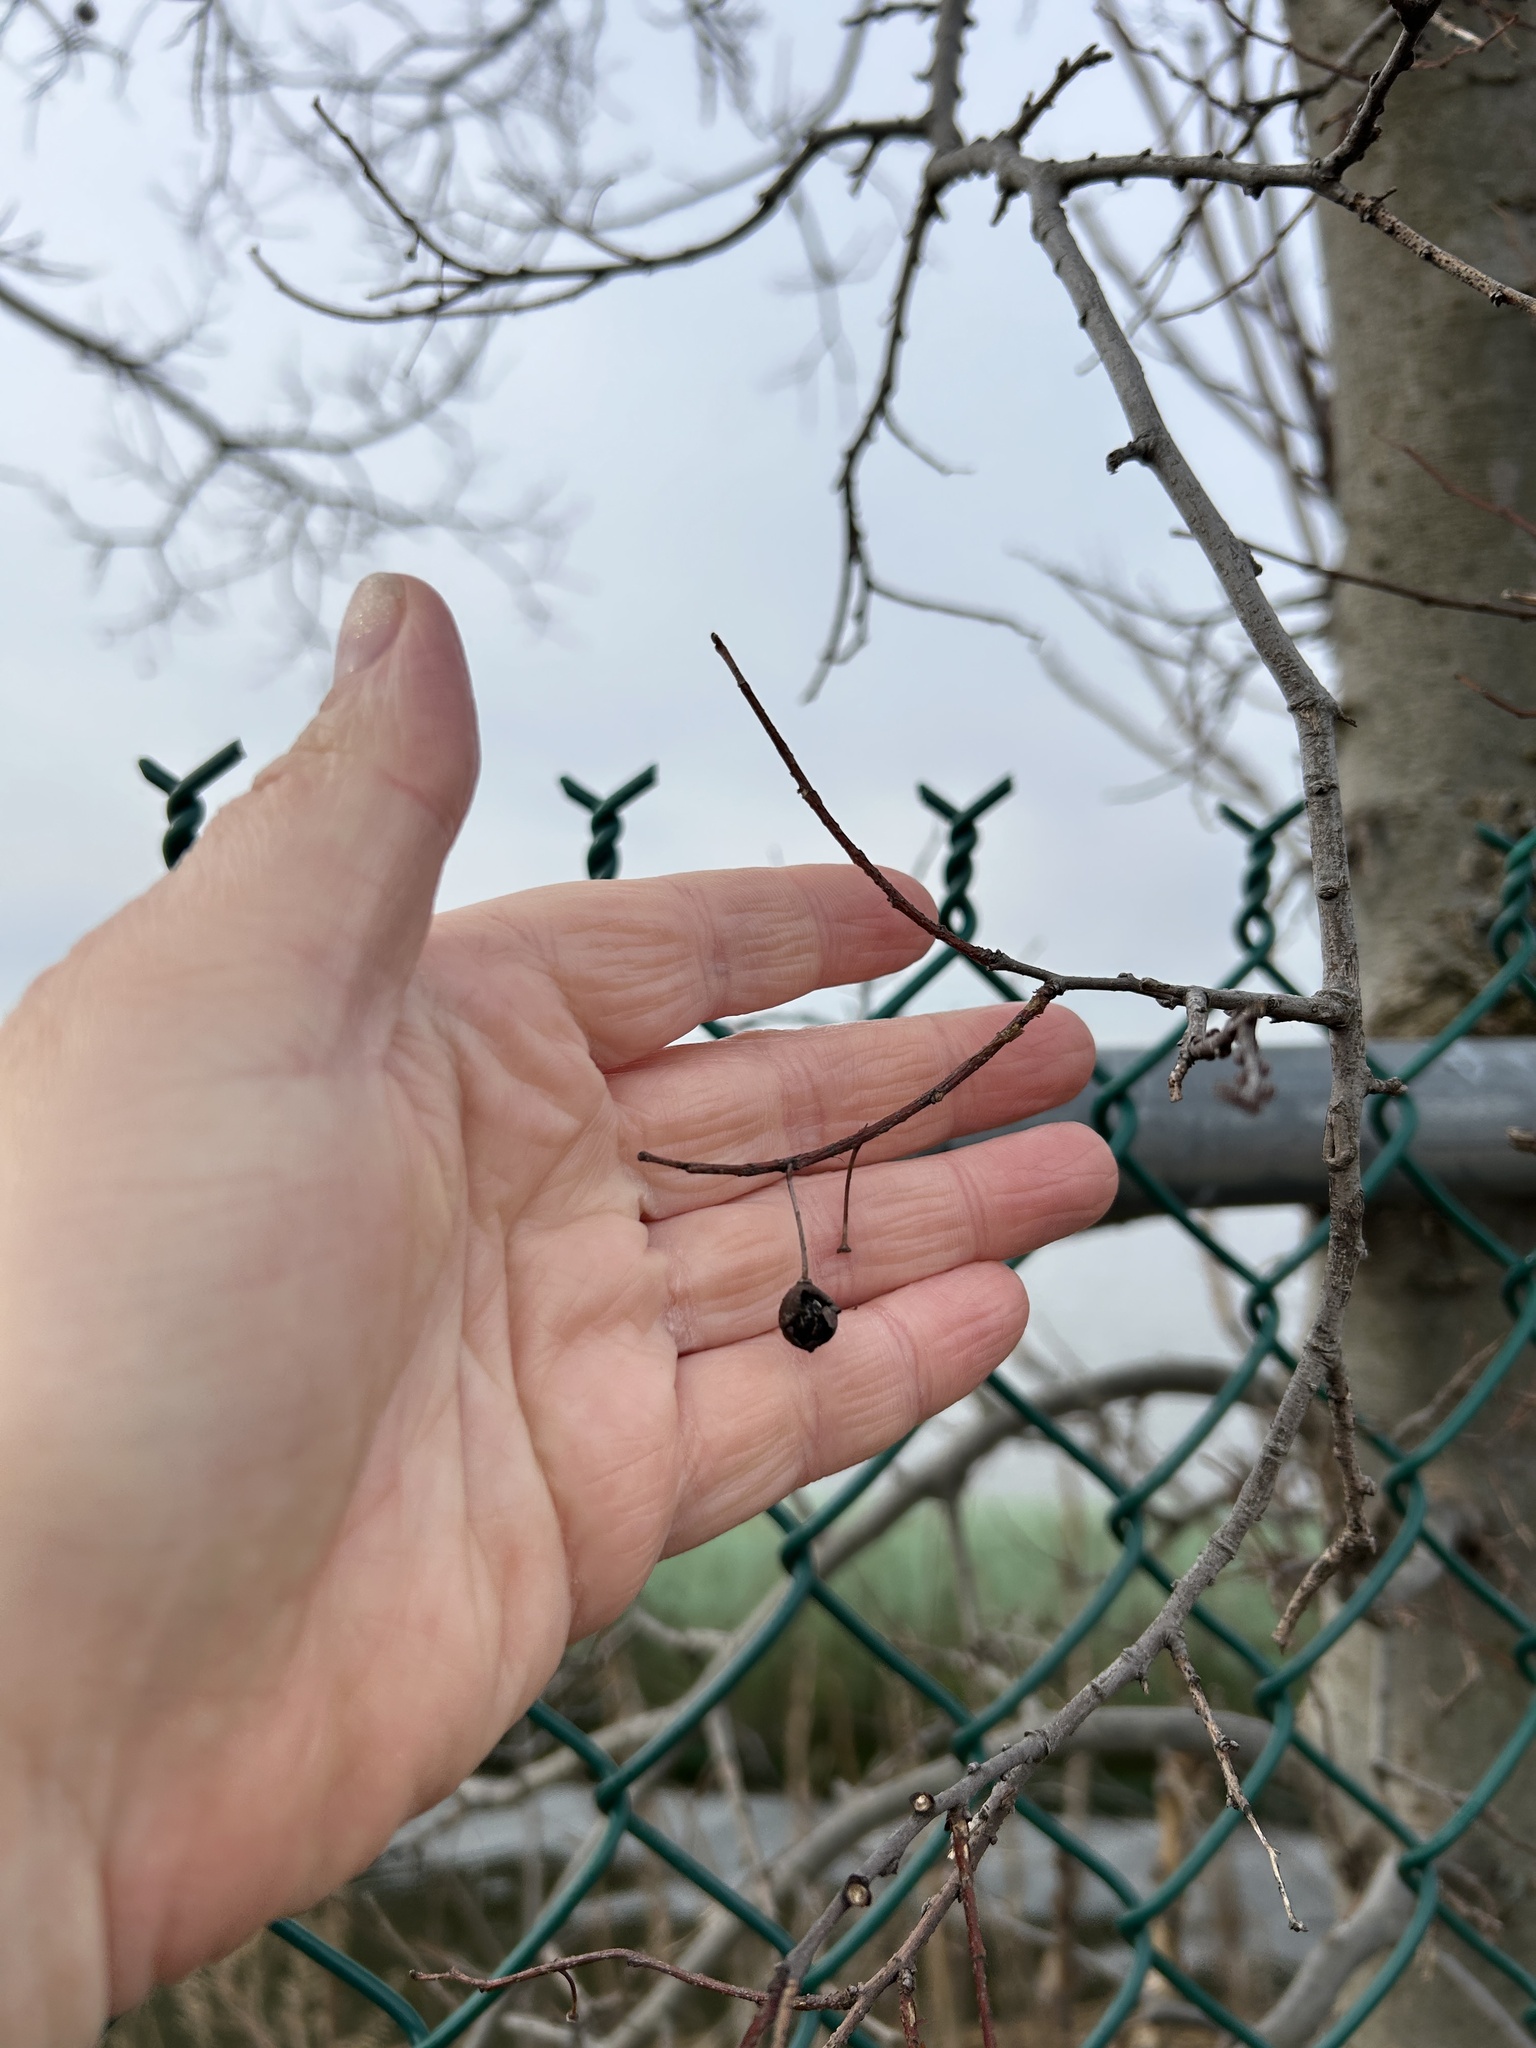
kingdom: Plantae
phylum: Tracheophyta
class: Magnoliopsida
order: Rosales
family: Cannabaceae
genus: Celtis
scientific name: Celtis occidentalis
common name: Common hackberry
